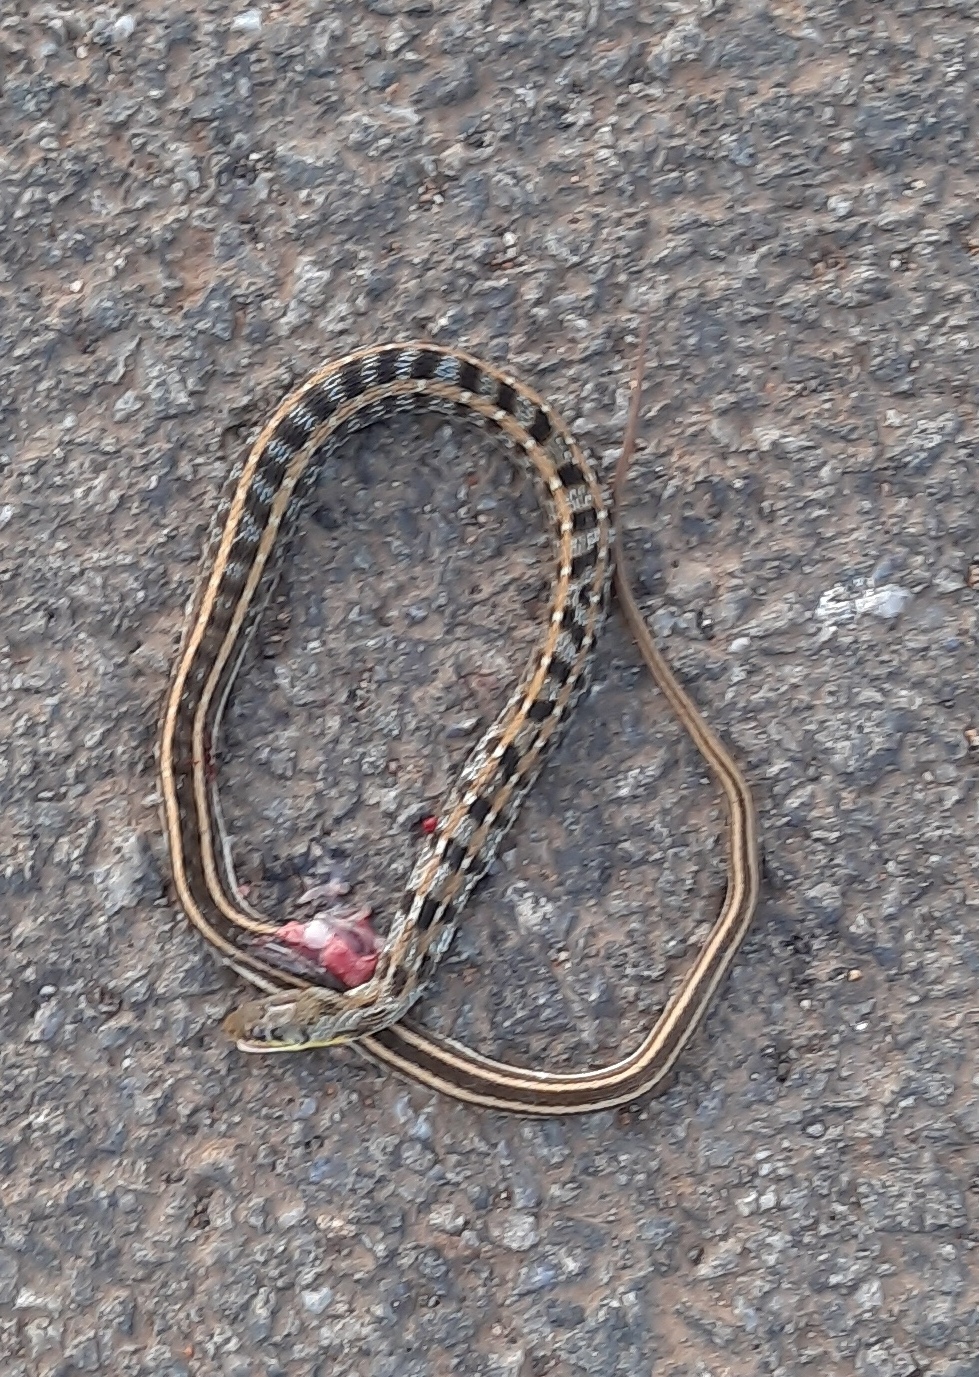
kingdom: Animalia
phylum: Chordata
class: Squamata
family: Colubridae
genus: Amphiesma
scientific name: Amphiesma stolatum
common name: Buff striped keelback
